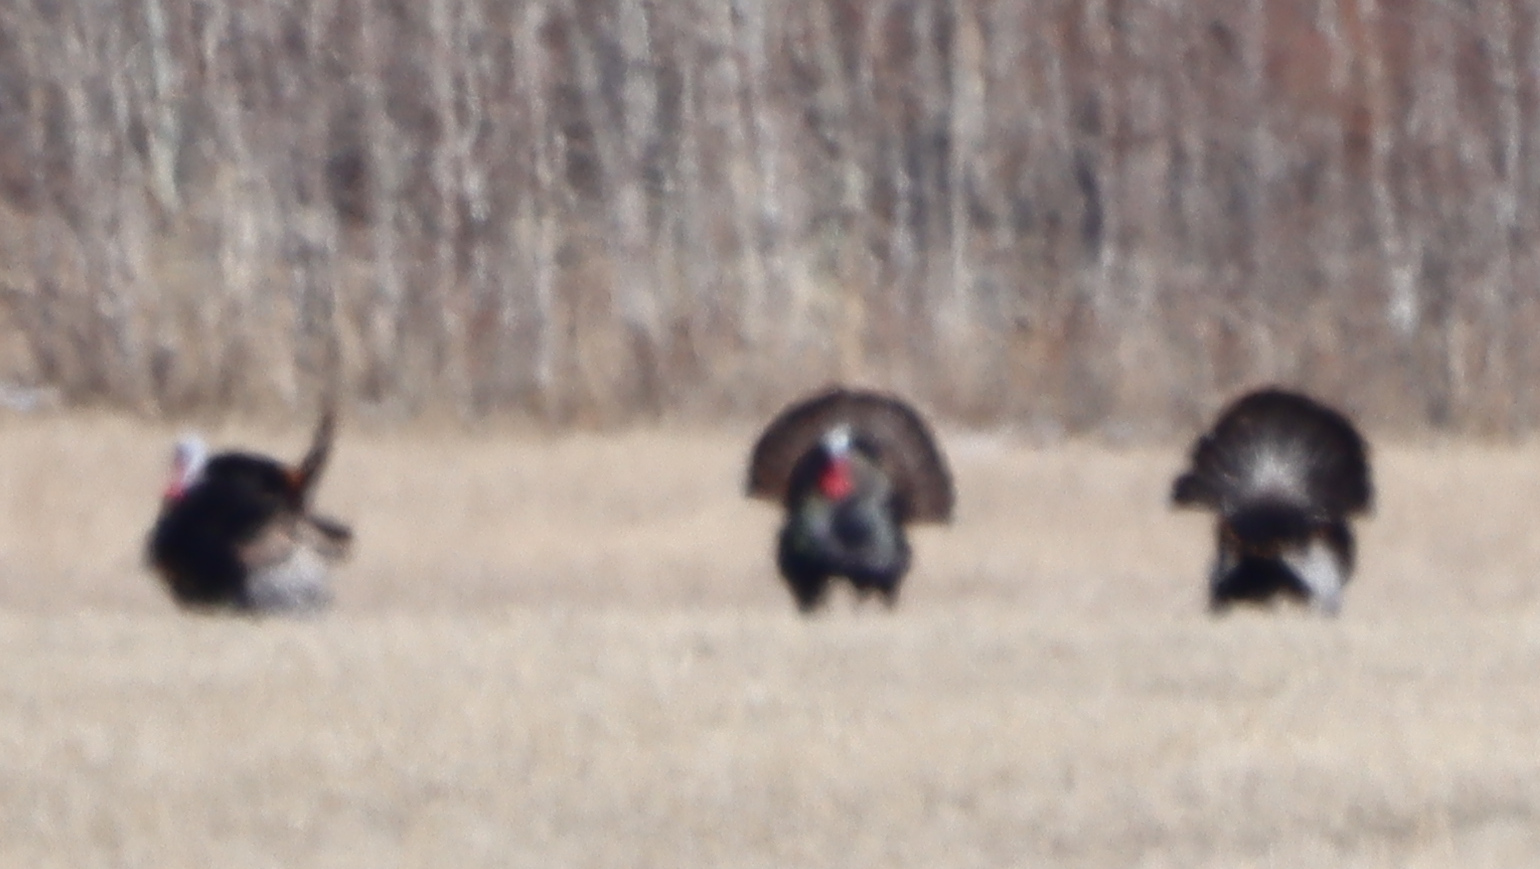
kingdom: Animalia
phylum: Chordata
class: Aves
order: Galliformes
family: Phasianidae
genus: Meleagris
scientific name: Meleagris gallopavo
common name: Wild turkey
